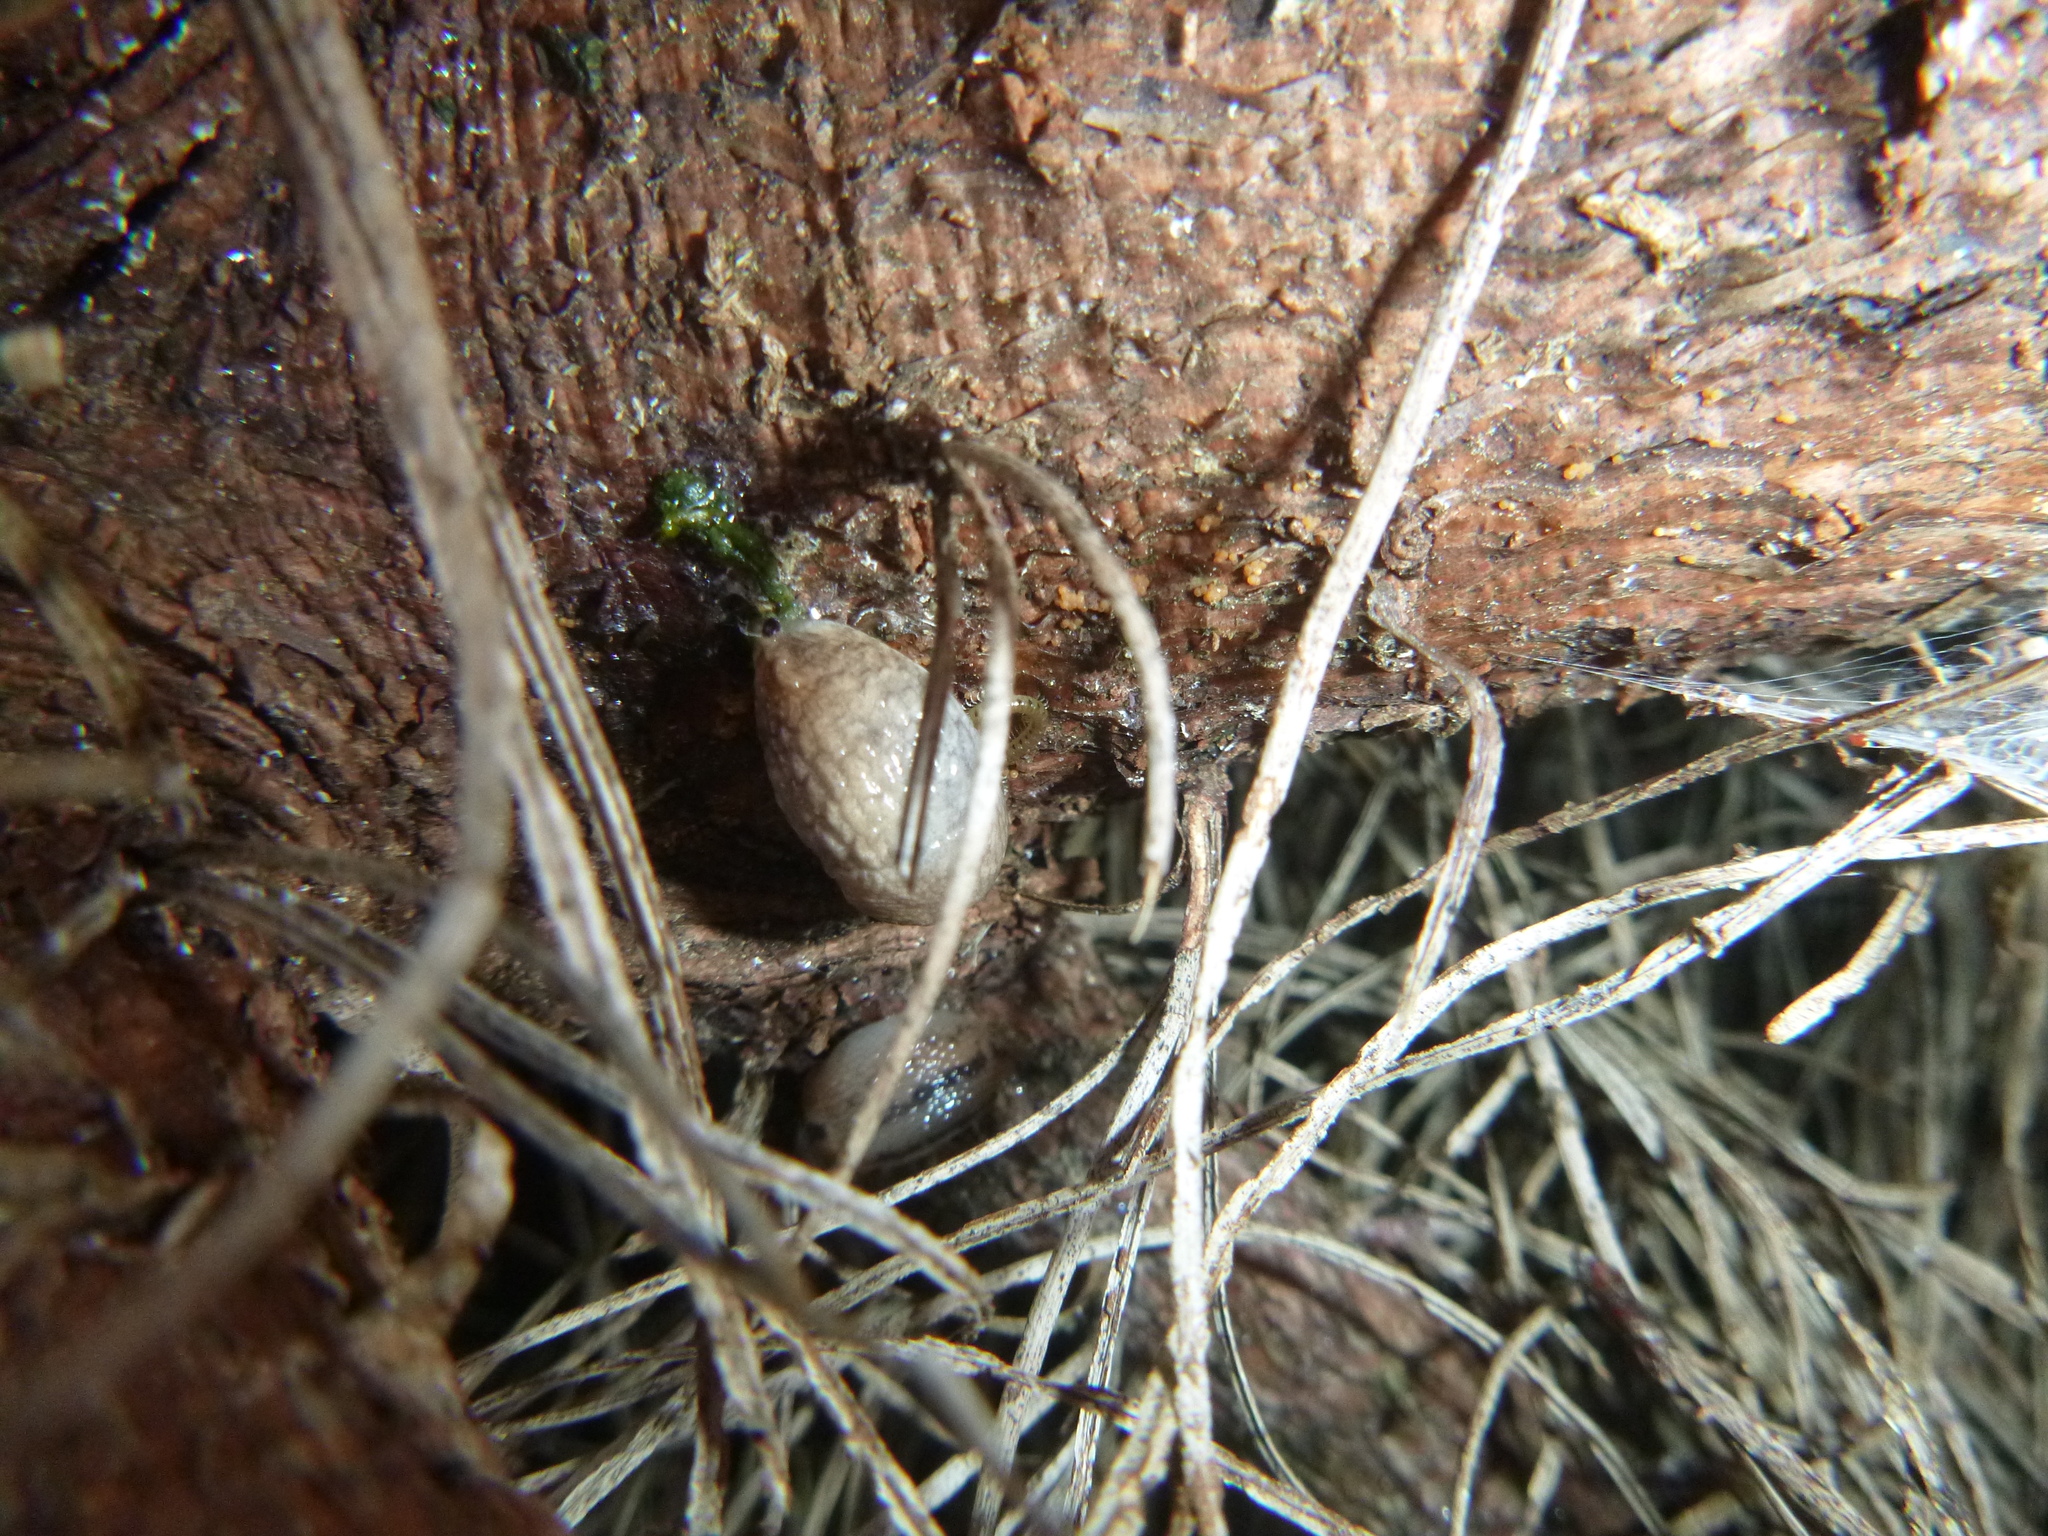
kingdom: Animalia
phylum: Mollusca
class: Gastropoda
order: Stylommatophora
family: Agriolimacidae
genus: Deroceras
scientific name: Deroceras reticulatum
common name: Gray field slug
